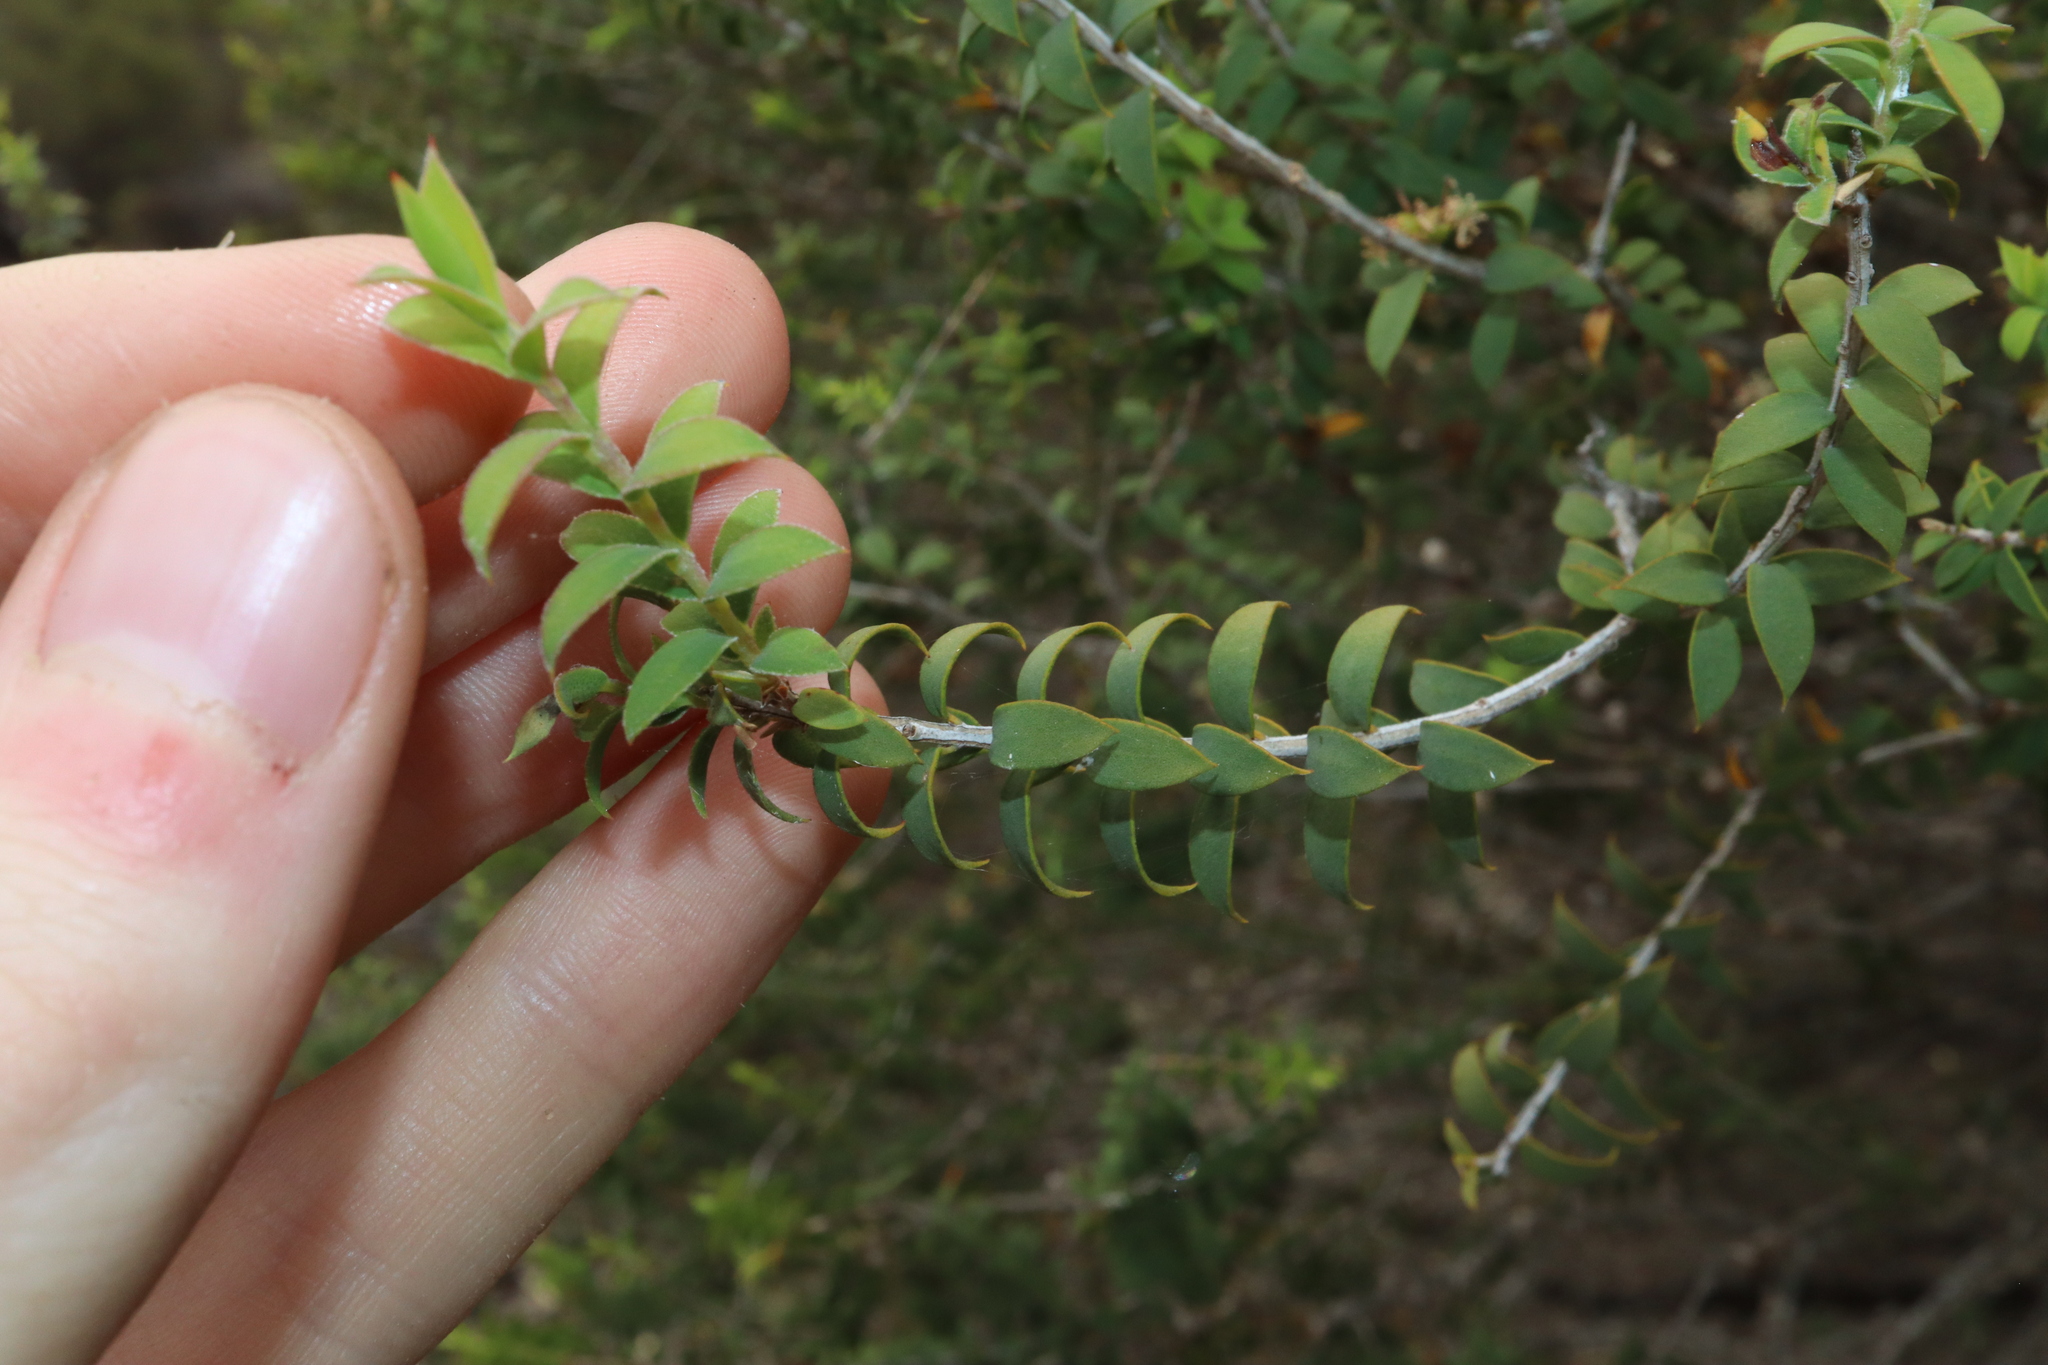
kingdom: Plantae
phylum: Tracheophyta
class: Magnoliopsida
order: Myrtales
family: Myrtaceae
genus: Melaleuca
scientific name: Melaleuca acuminata
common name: Mallee honey myrtle
